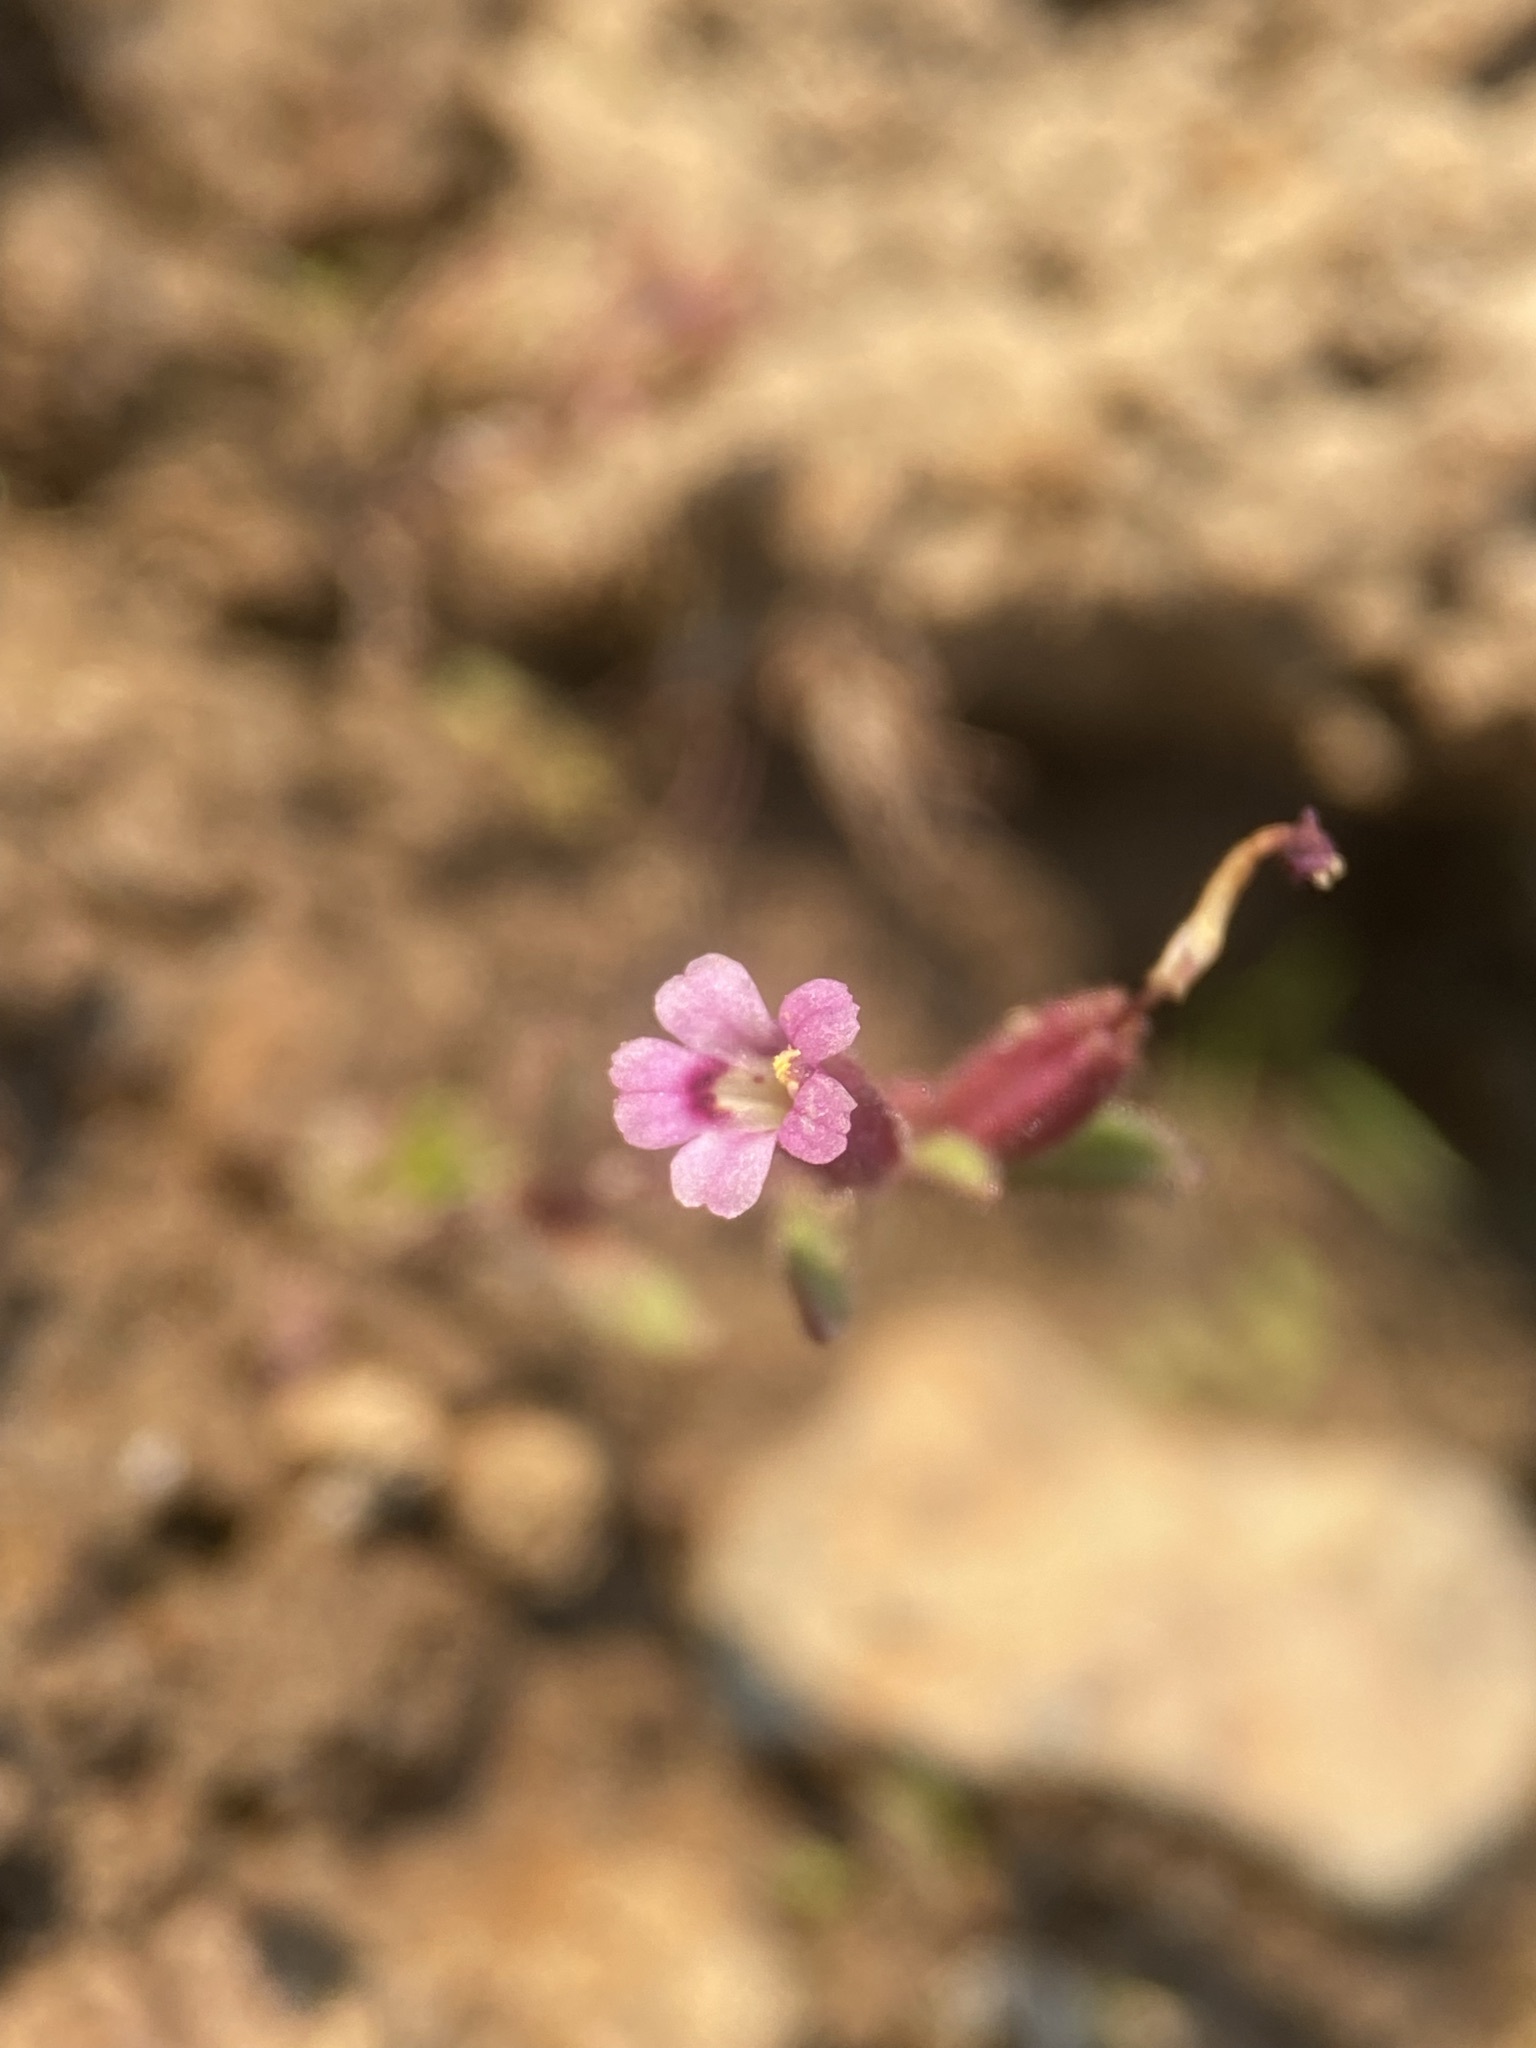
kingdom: Plantae
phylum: Tracheophyta
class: Magnoliopsida
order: Lamiales
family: Phrymaceae
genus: Erythranthe
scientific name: Erythranthe breweri
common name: Brewer's monkeyflower
